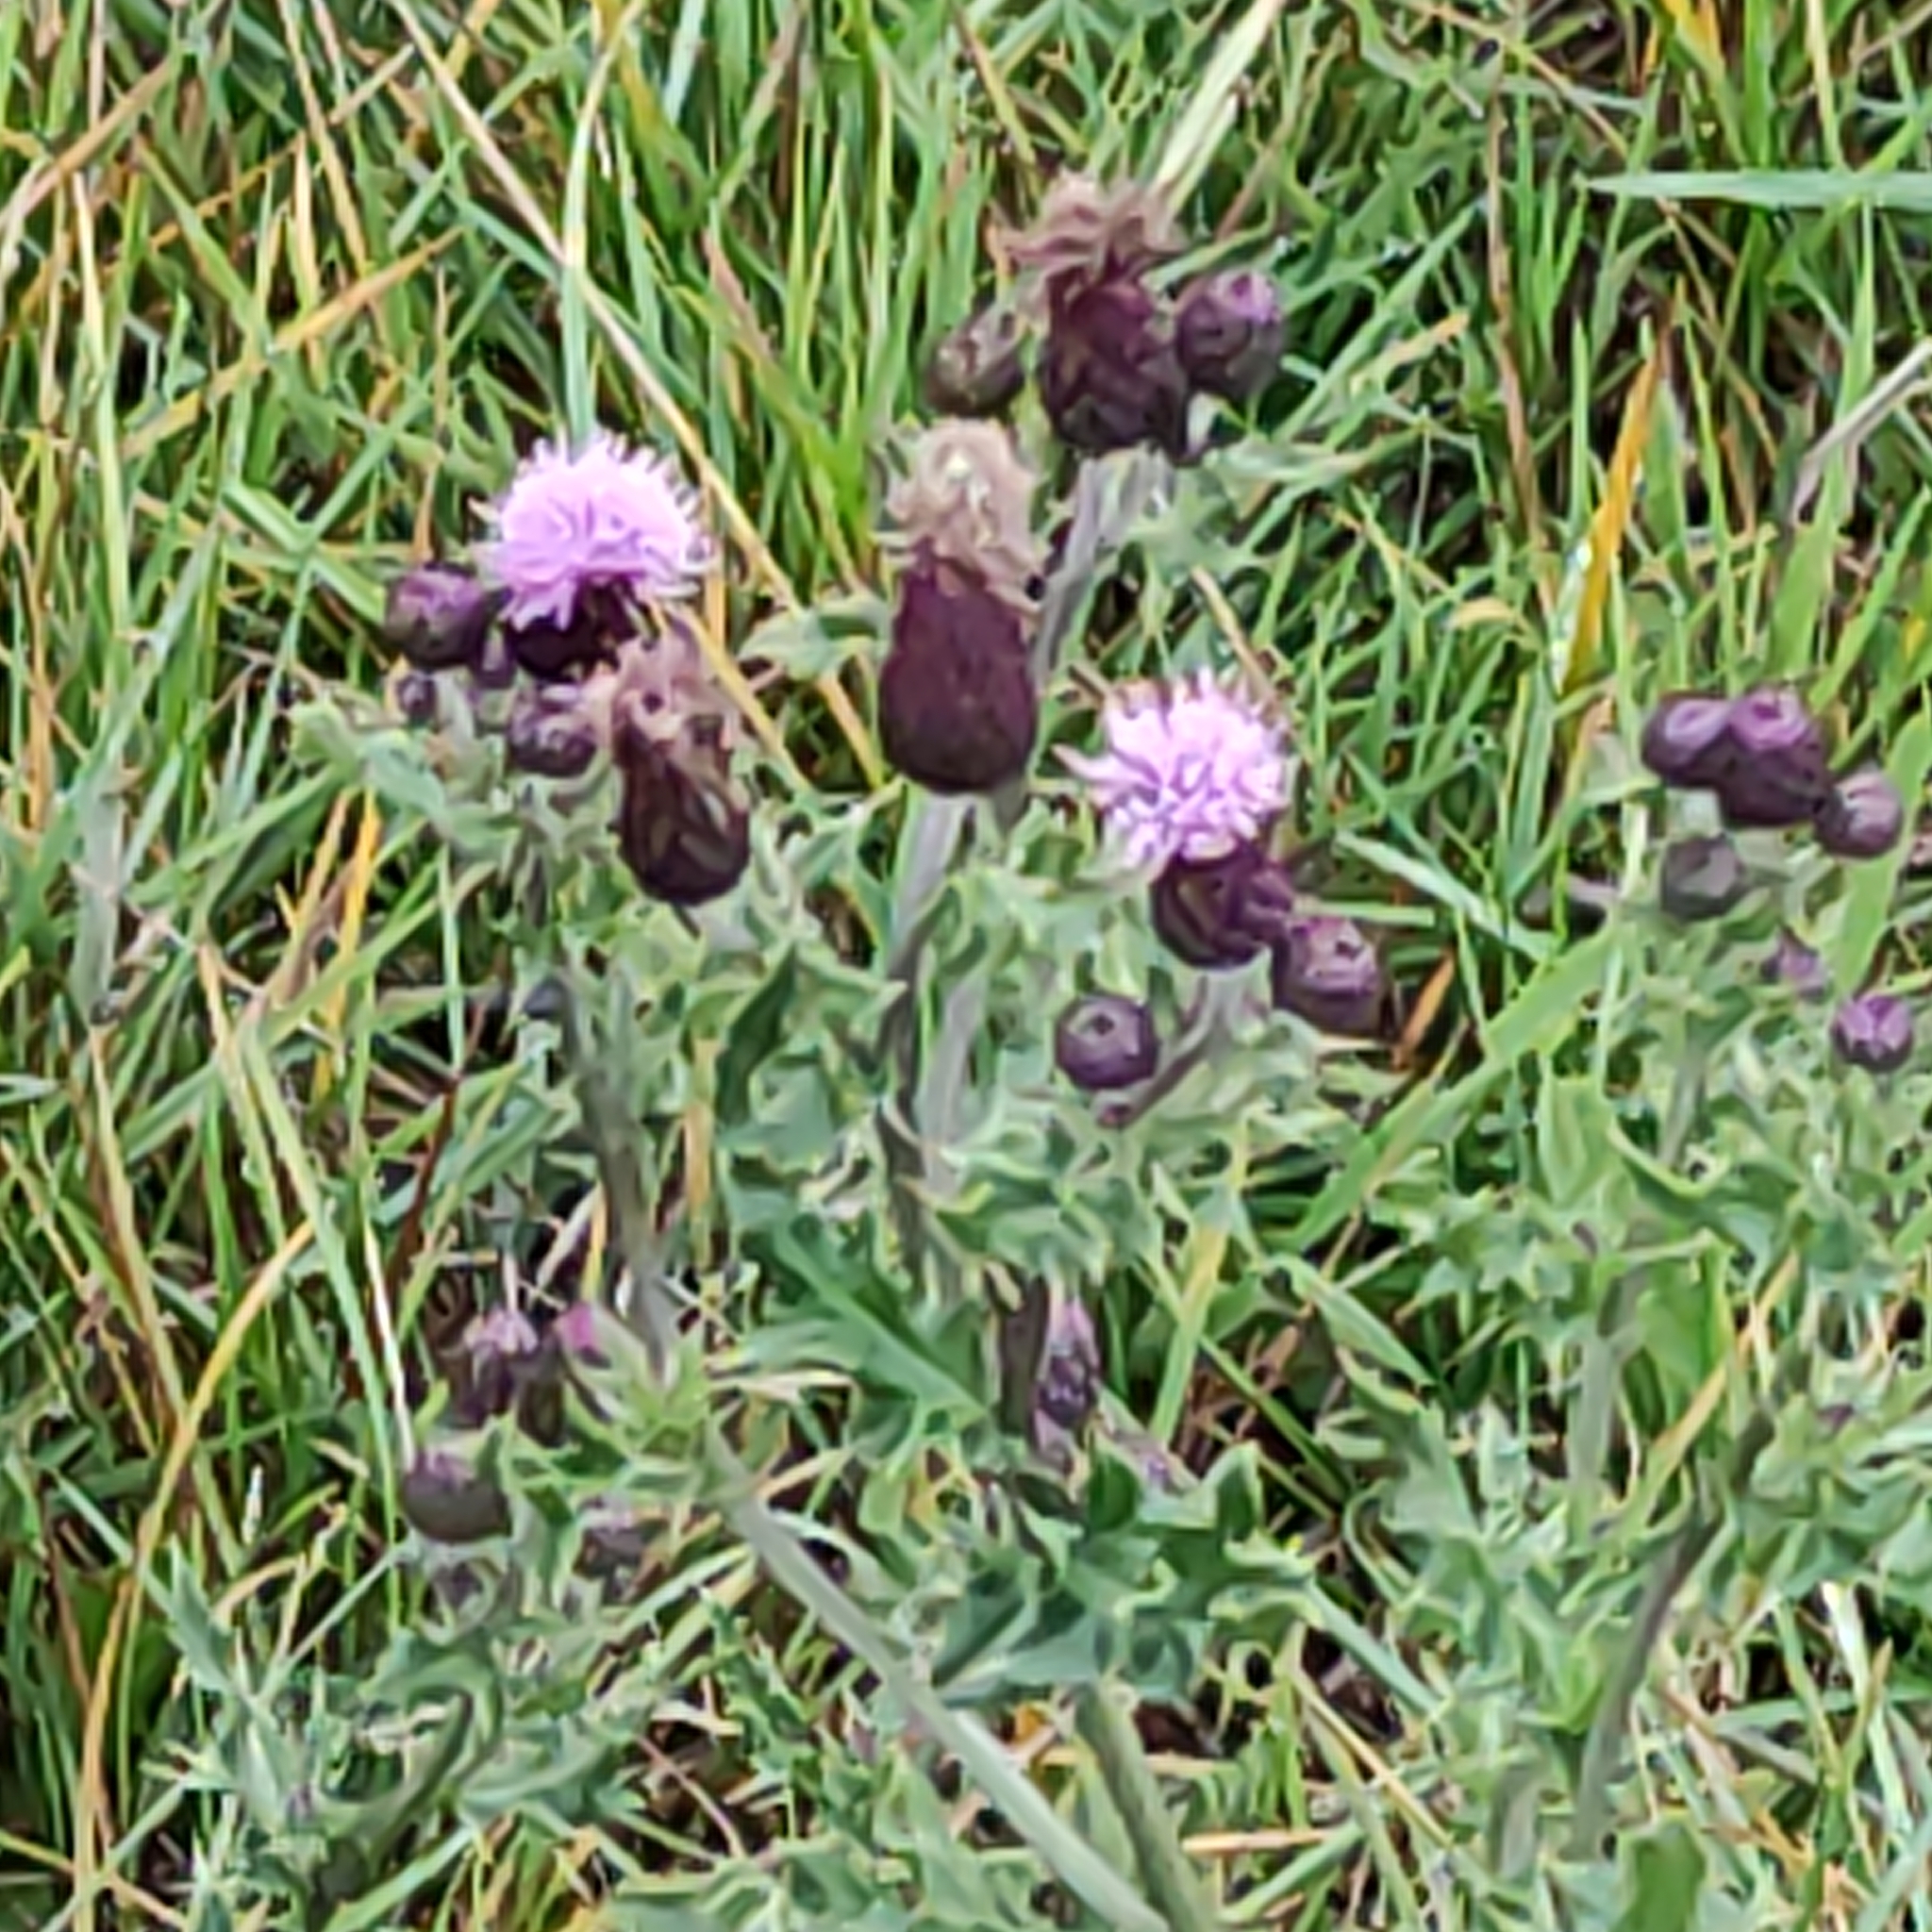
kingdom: Plantae
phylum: Tracheophyta
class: Magnoliopsida
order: Asterales
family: Asteraceae
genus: Cirsium
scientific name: Cirsium arvense
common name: Creeping thistle
